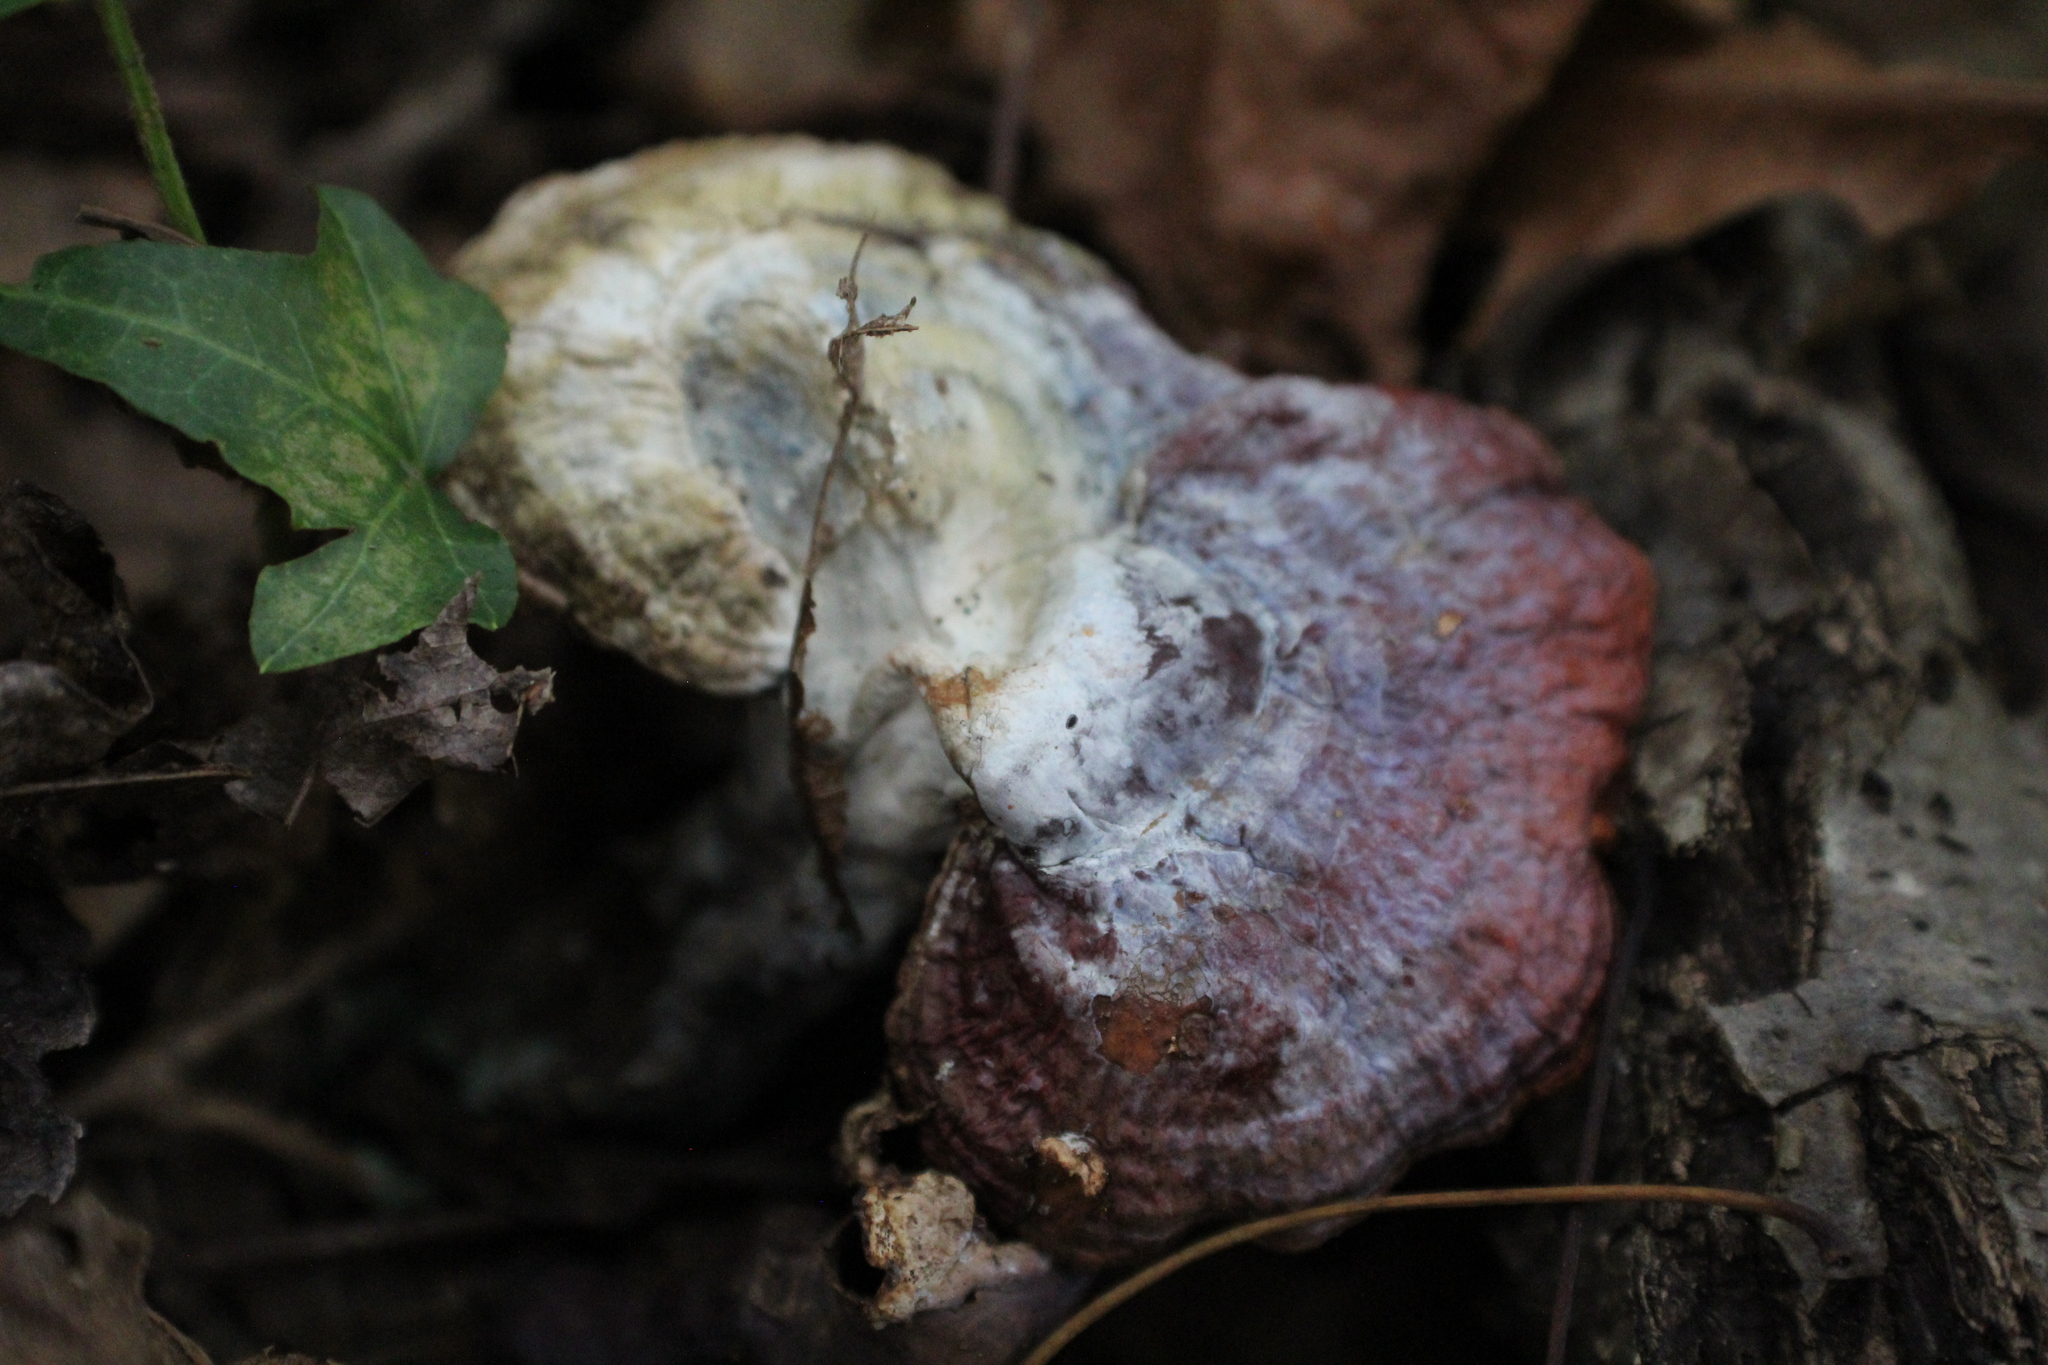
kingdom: Fungi
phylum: Basidiomycota
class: Agaricomycetes
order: Polyporales
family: Polyporaceae
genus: Ganoderma
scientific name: Ganoderma curtisii
